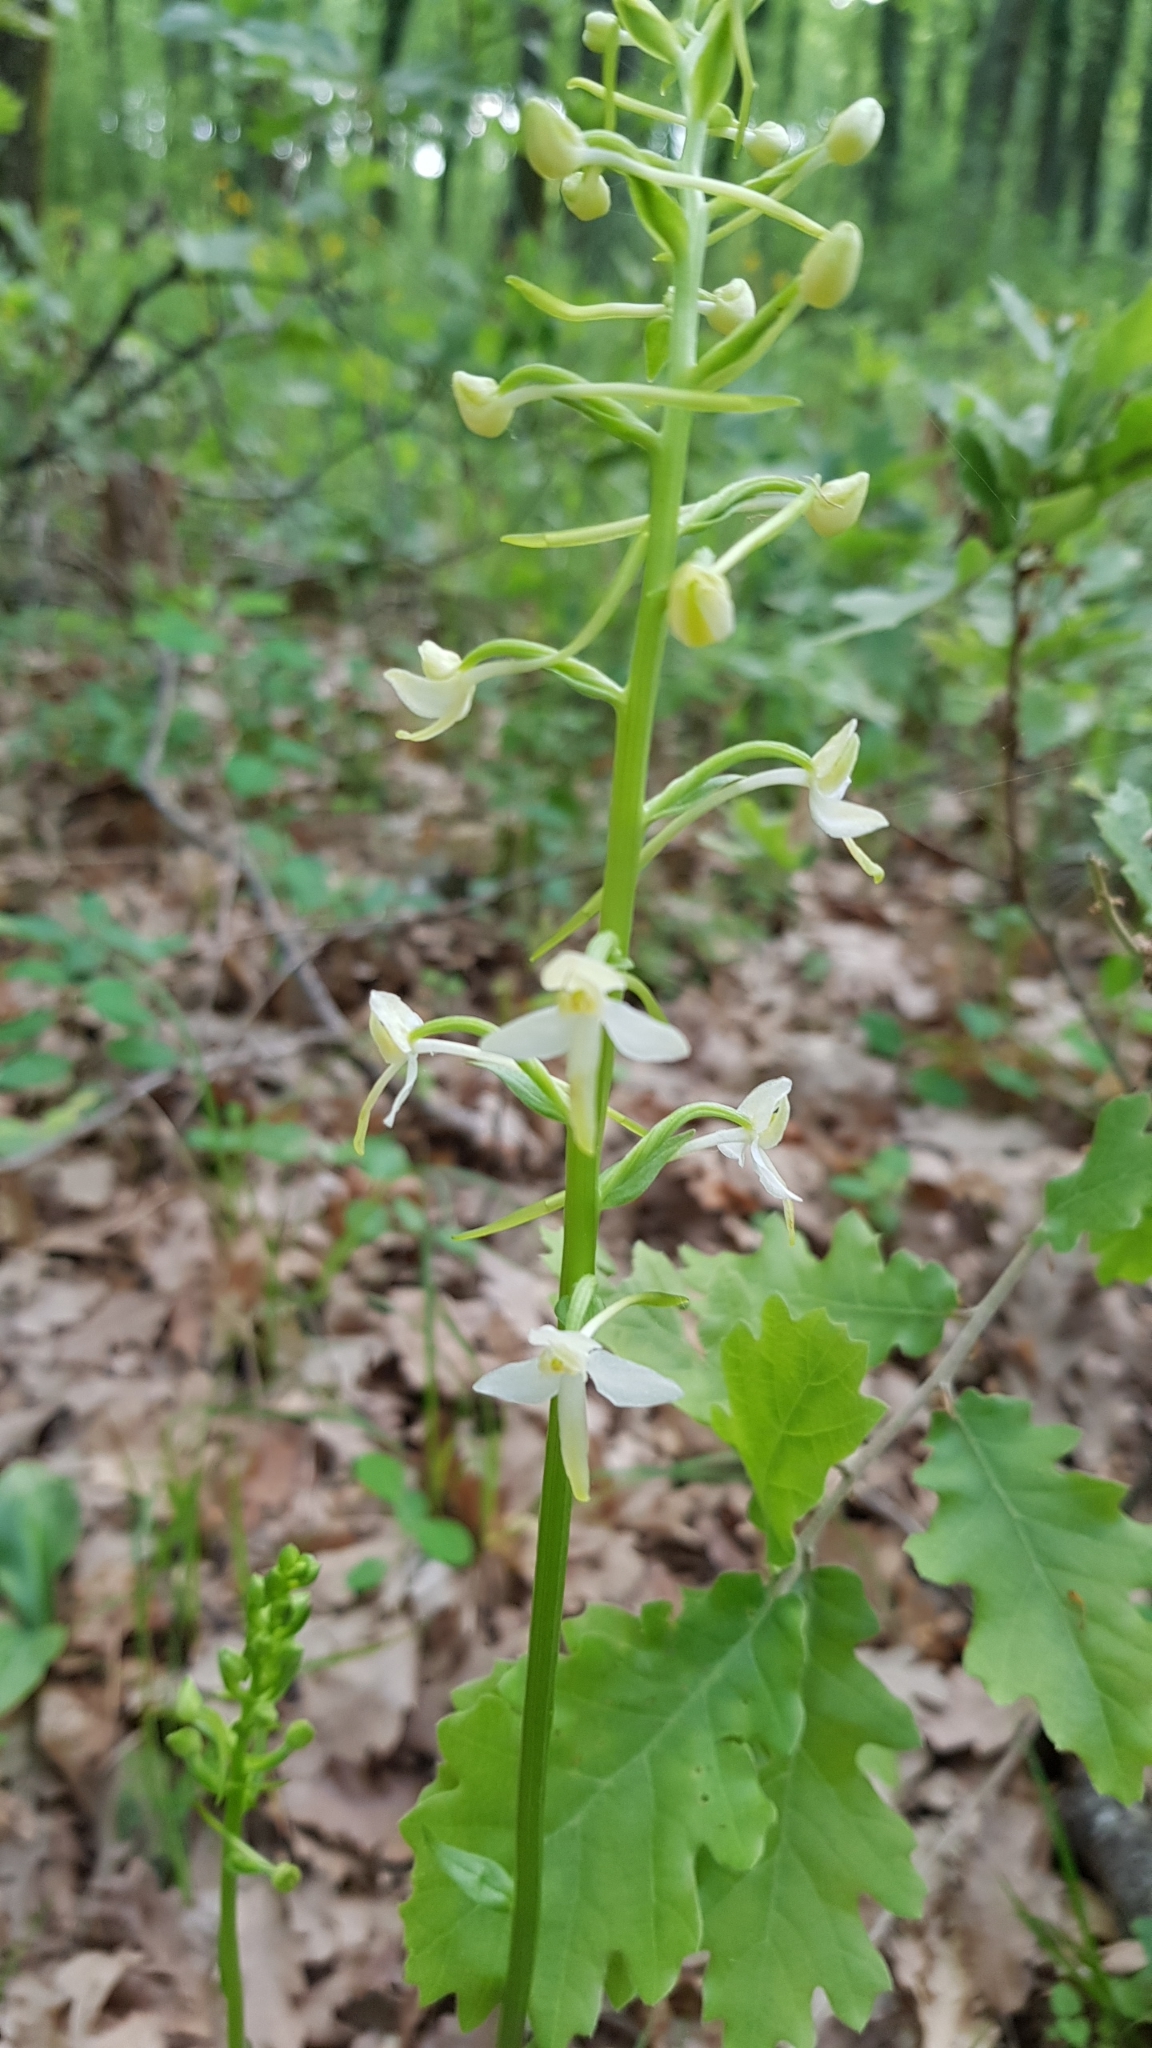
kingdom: Plantae
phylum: Tracheophyta
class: Liliopsida
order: Asparagales
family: Orchidaceae
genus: Platanthera
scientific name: Platanthera bifolia
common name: Lesser butterfly-orchid
